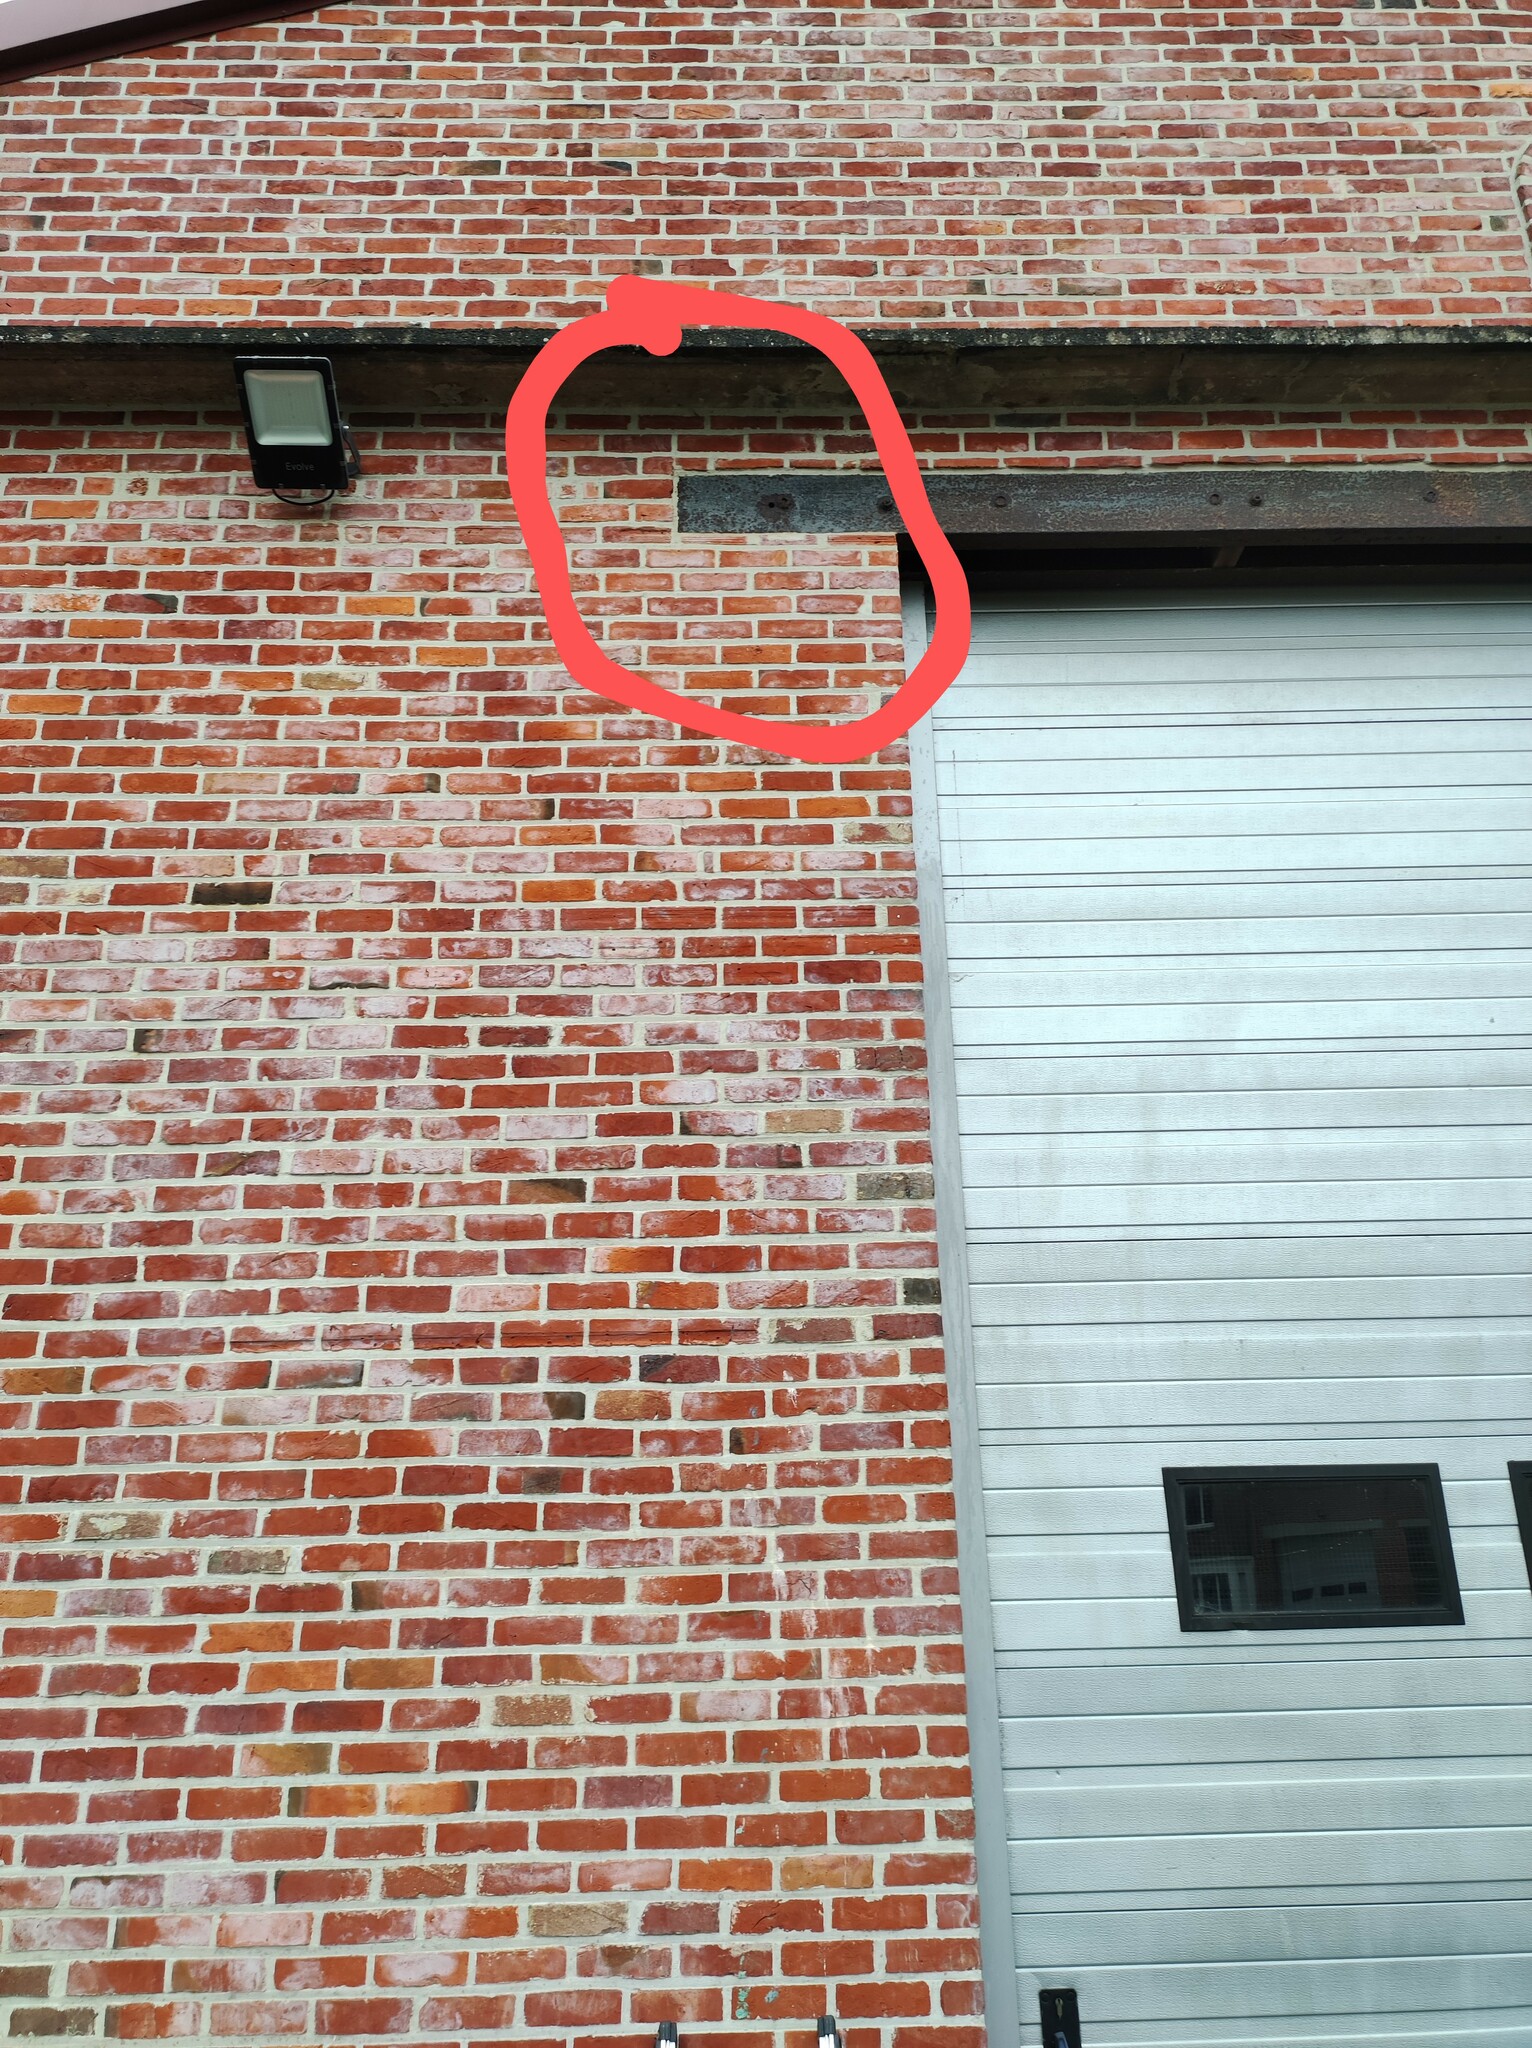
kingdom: Animalia
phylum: Arthropoda
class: Insecta
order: Hymenoptera
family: Vespidae
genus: Vespa
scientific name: Vespa velutina
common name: Asian hornet
